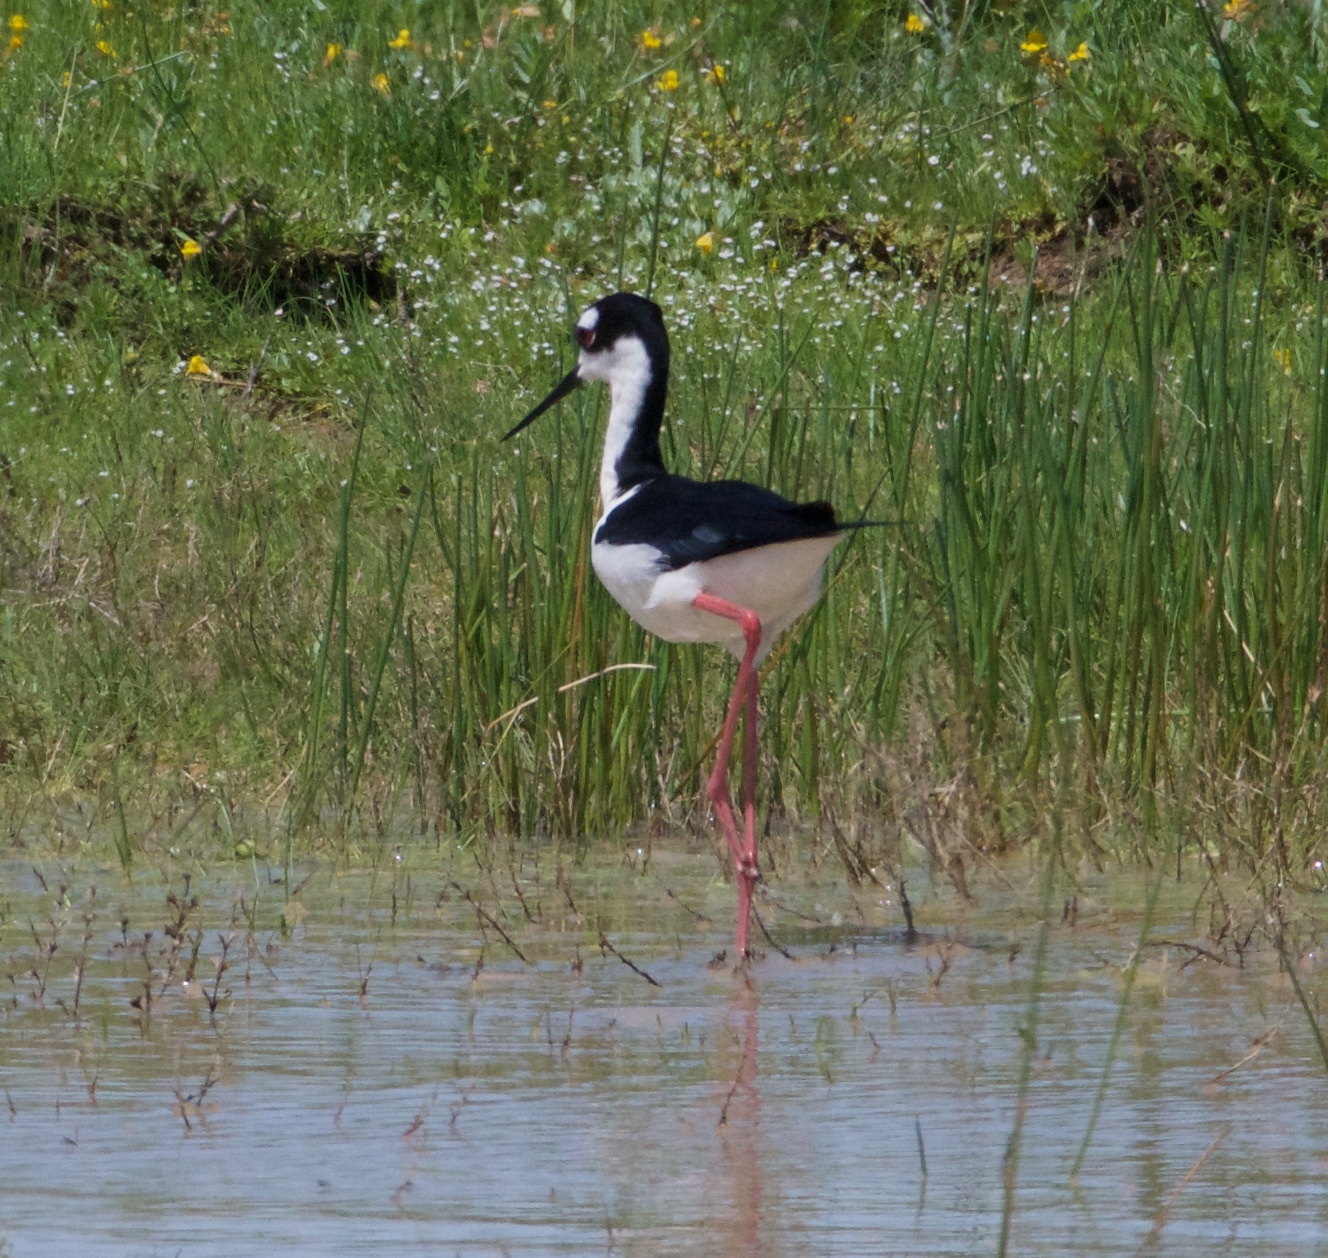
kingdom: Animalia
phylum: Chordata
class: Aves
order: Charadriiformes
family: Recurvirostridae
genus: Himantopus
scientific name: Himantopus mexicanus
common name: Black-necked stilt
